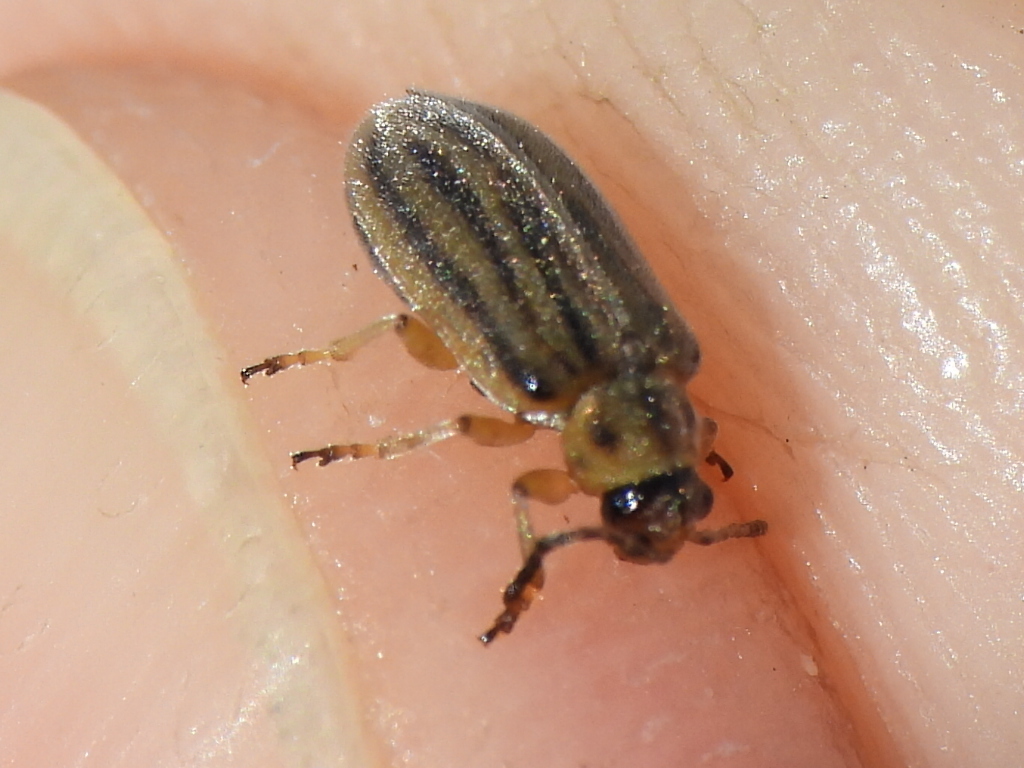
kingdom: Animalia
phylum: Arthropoda
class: Insecta
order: Coleoptera
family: Chrysomelidae
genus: Ophraella
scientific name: Ophraella communa
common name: Ragweed leaf beetle
